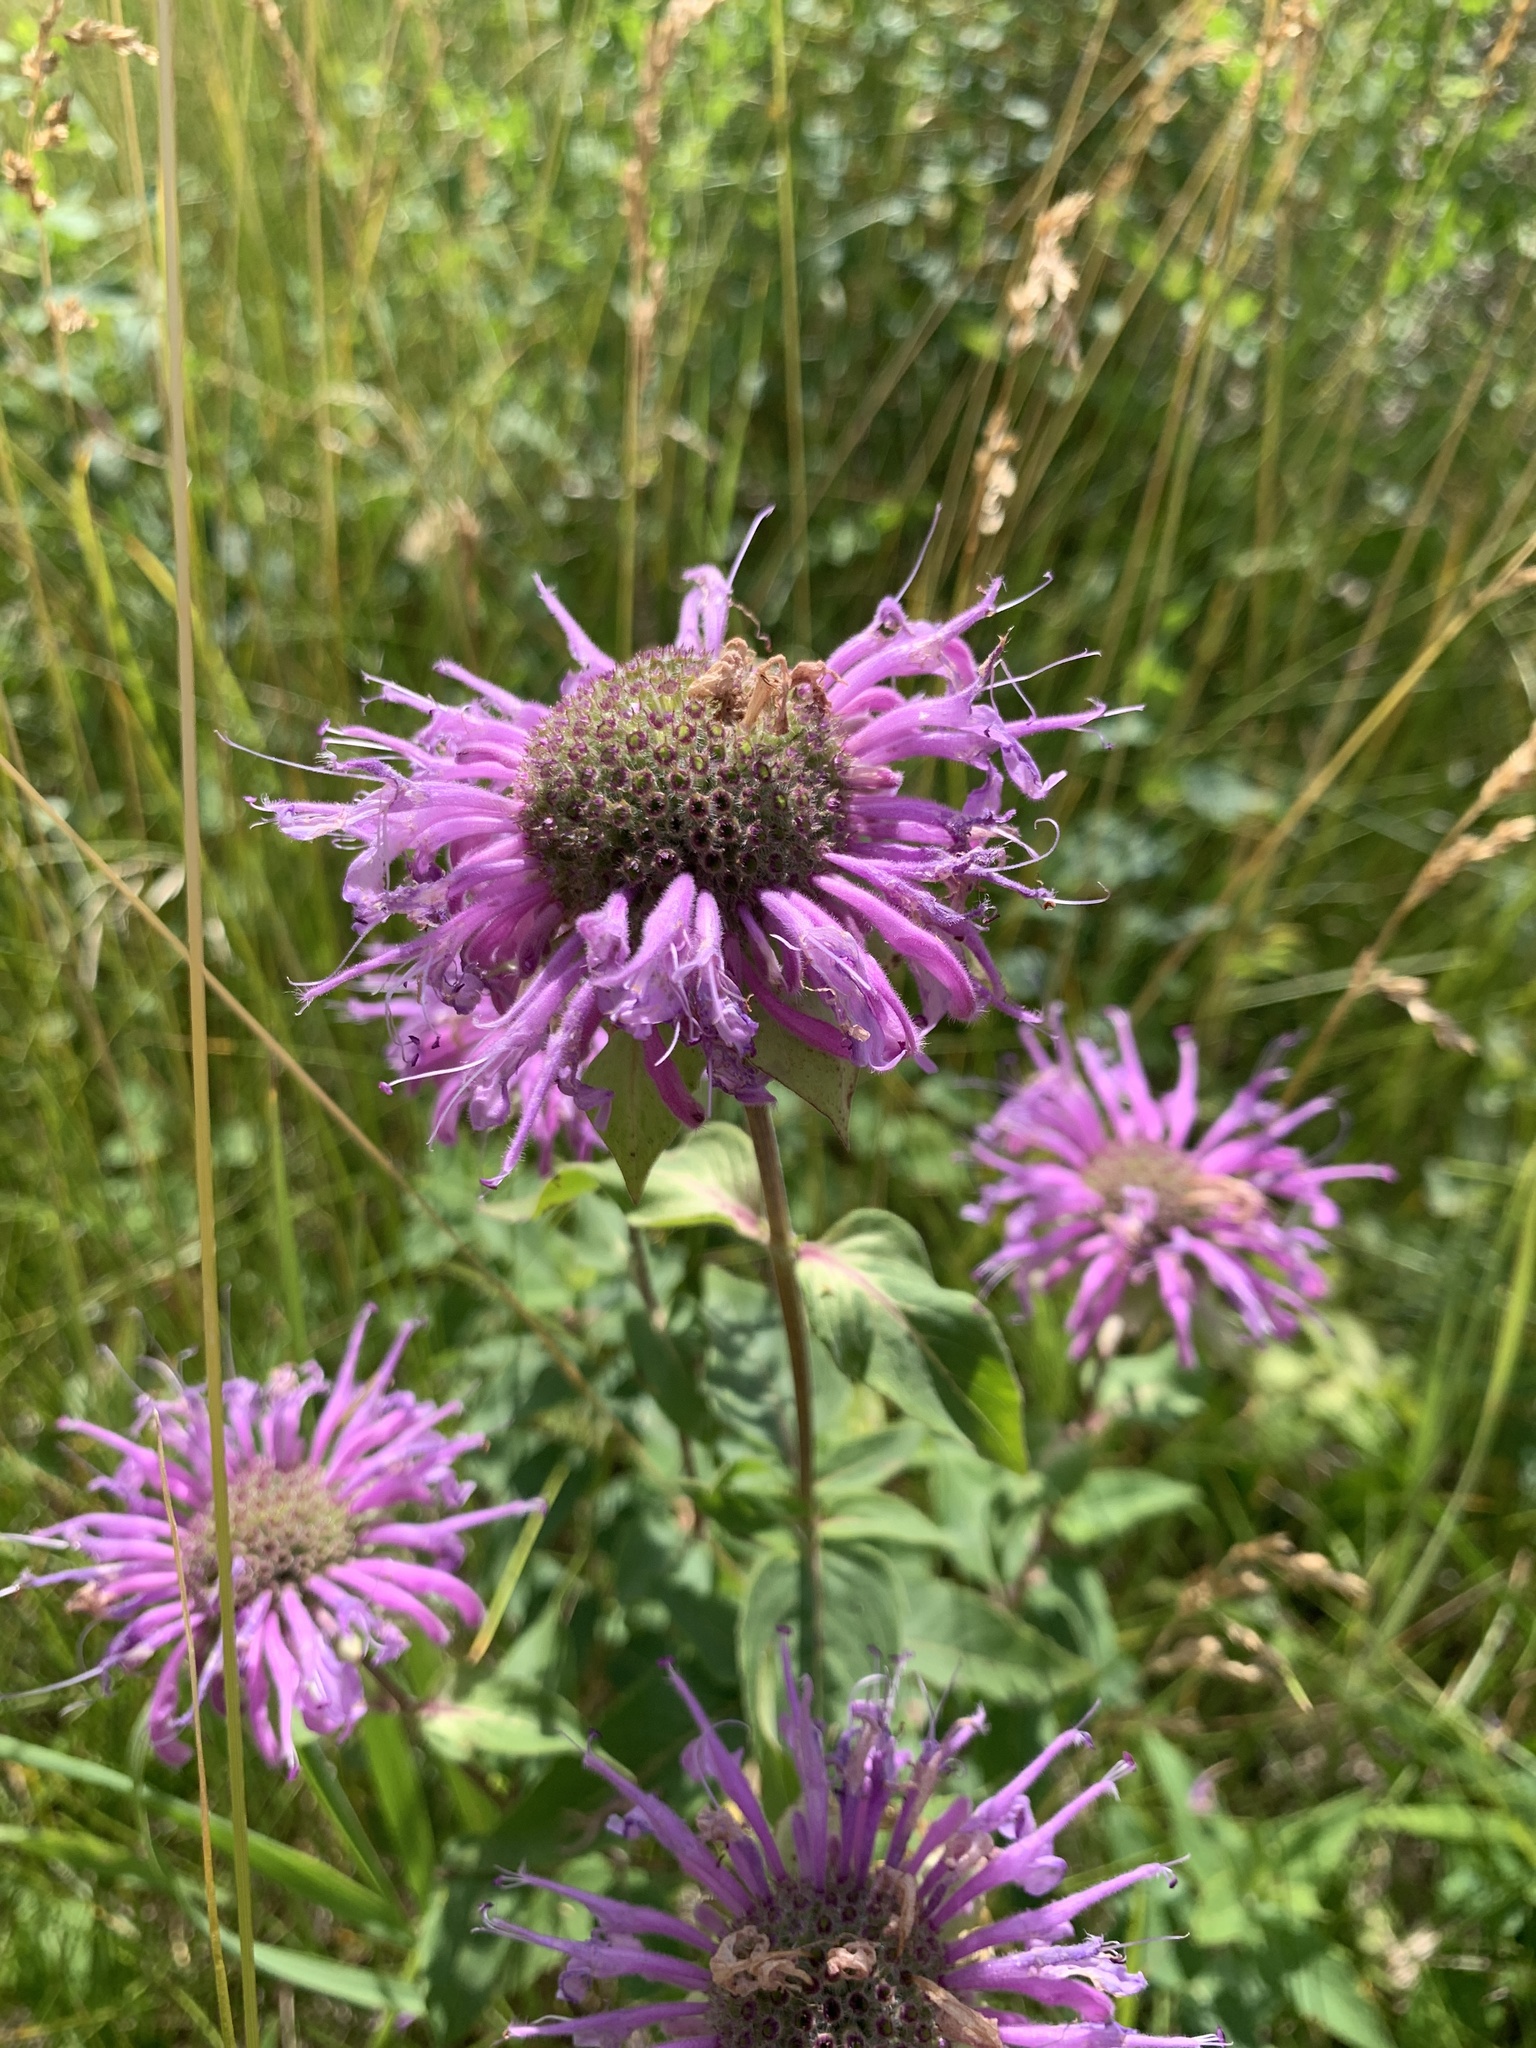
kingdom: Plantae
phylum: Tracheophyta
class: Magnoliopsida
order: Lamiales
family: Lamiaceae
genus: Monarda
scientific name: Monarda fistulosa
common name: Purple beebalm
